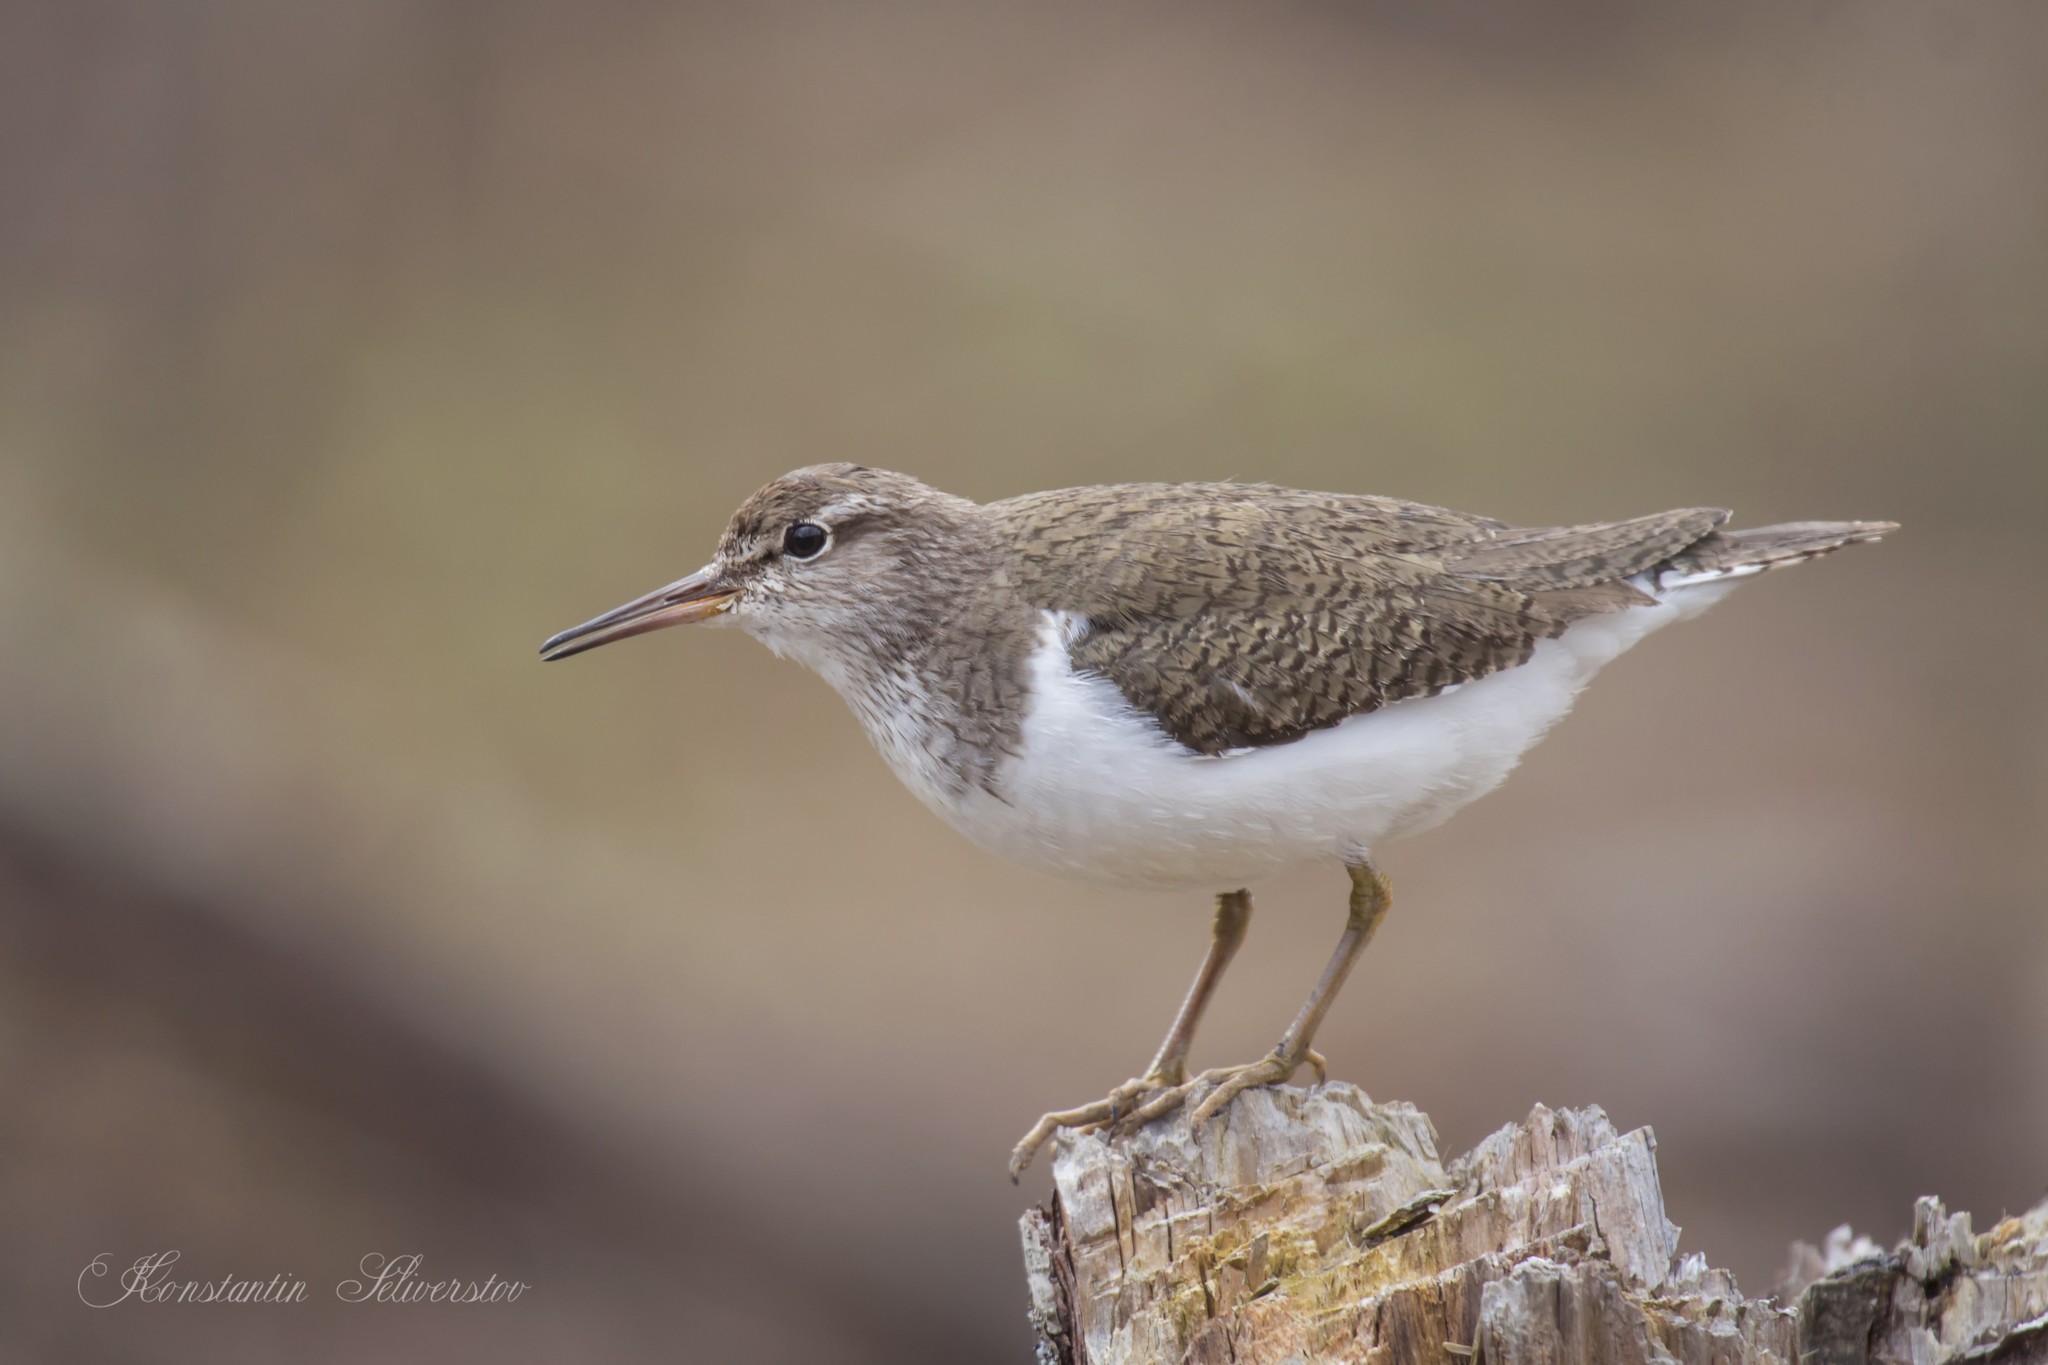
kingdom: Animalia
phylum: Chordata
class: Aves
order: Charadriiformes
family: Scolopacidae
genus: Actitis
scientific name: Actitis hypoleucos
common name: Common sandpiper
